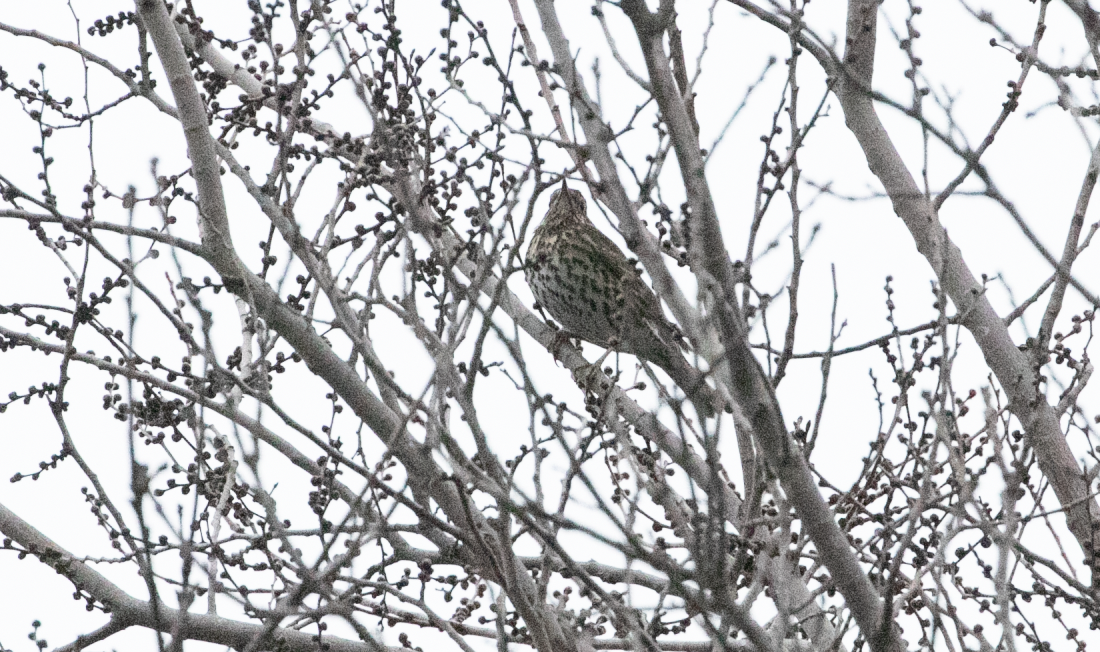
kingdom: Animalia
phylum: Chordata
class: Aves
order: Passeriformes
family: Turdidae
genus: Turdus
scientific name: Turdus philomelos
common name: Song thrush
